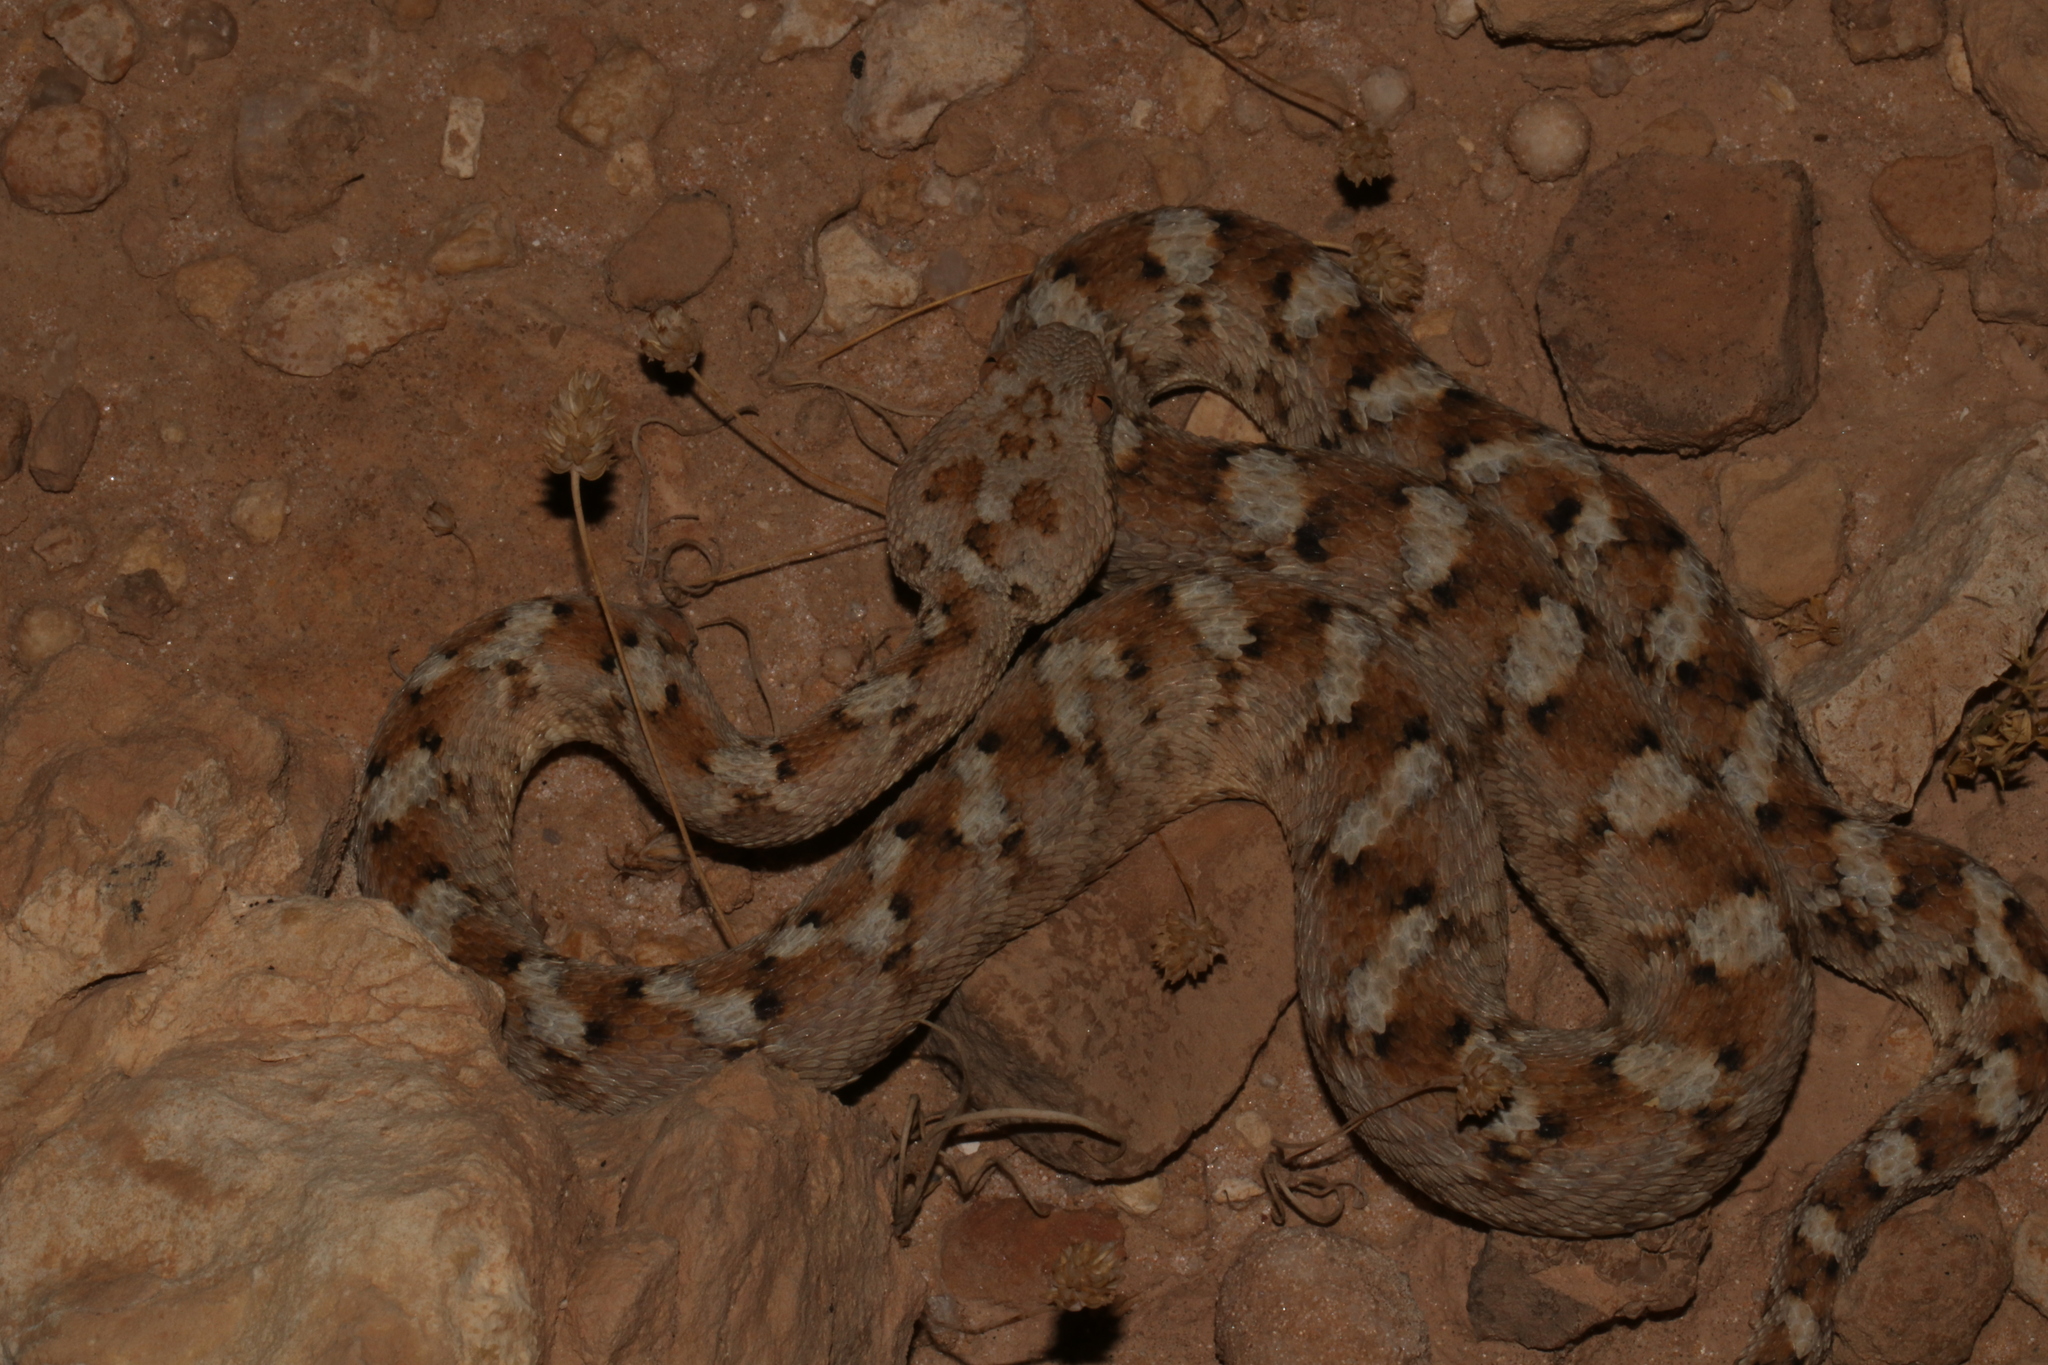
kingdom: Animalia
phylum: Chordata
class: Squamata
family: Viperidae
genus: Echis
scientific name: Echis coloratus
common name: Palestine saw-scaled viper
